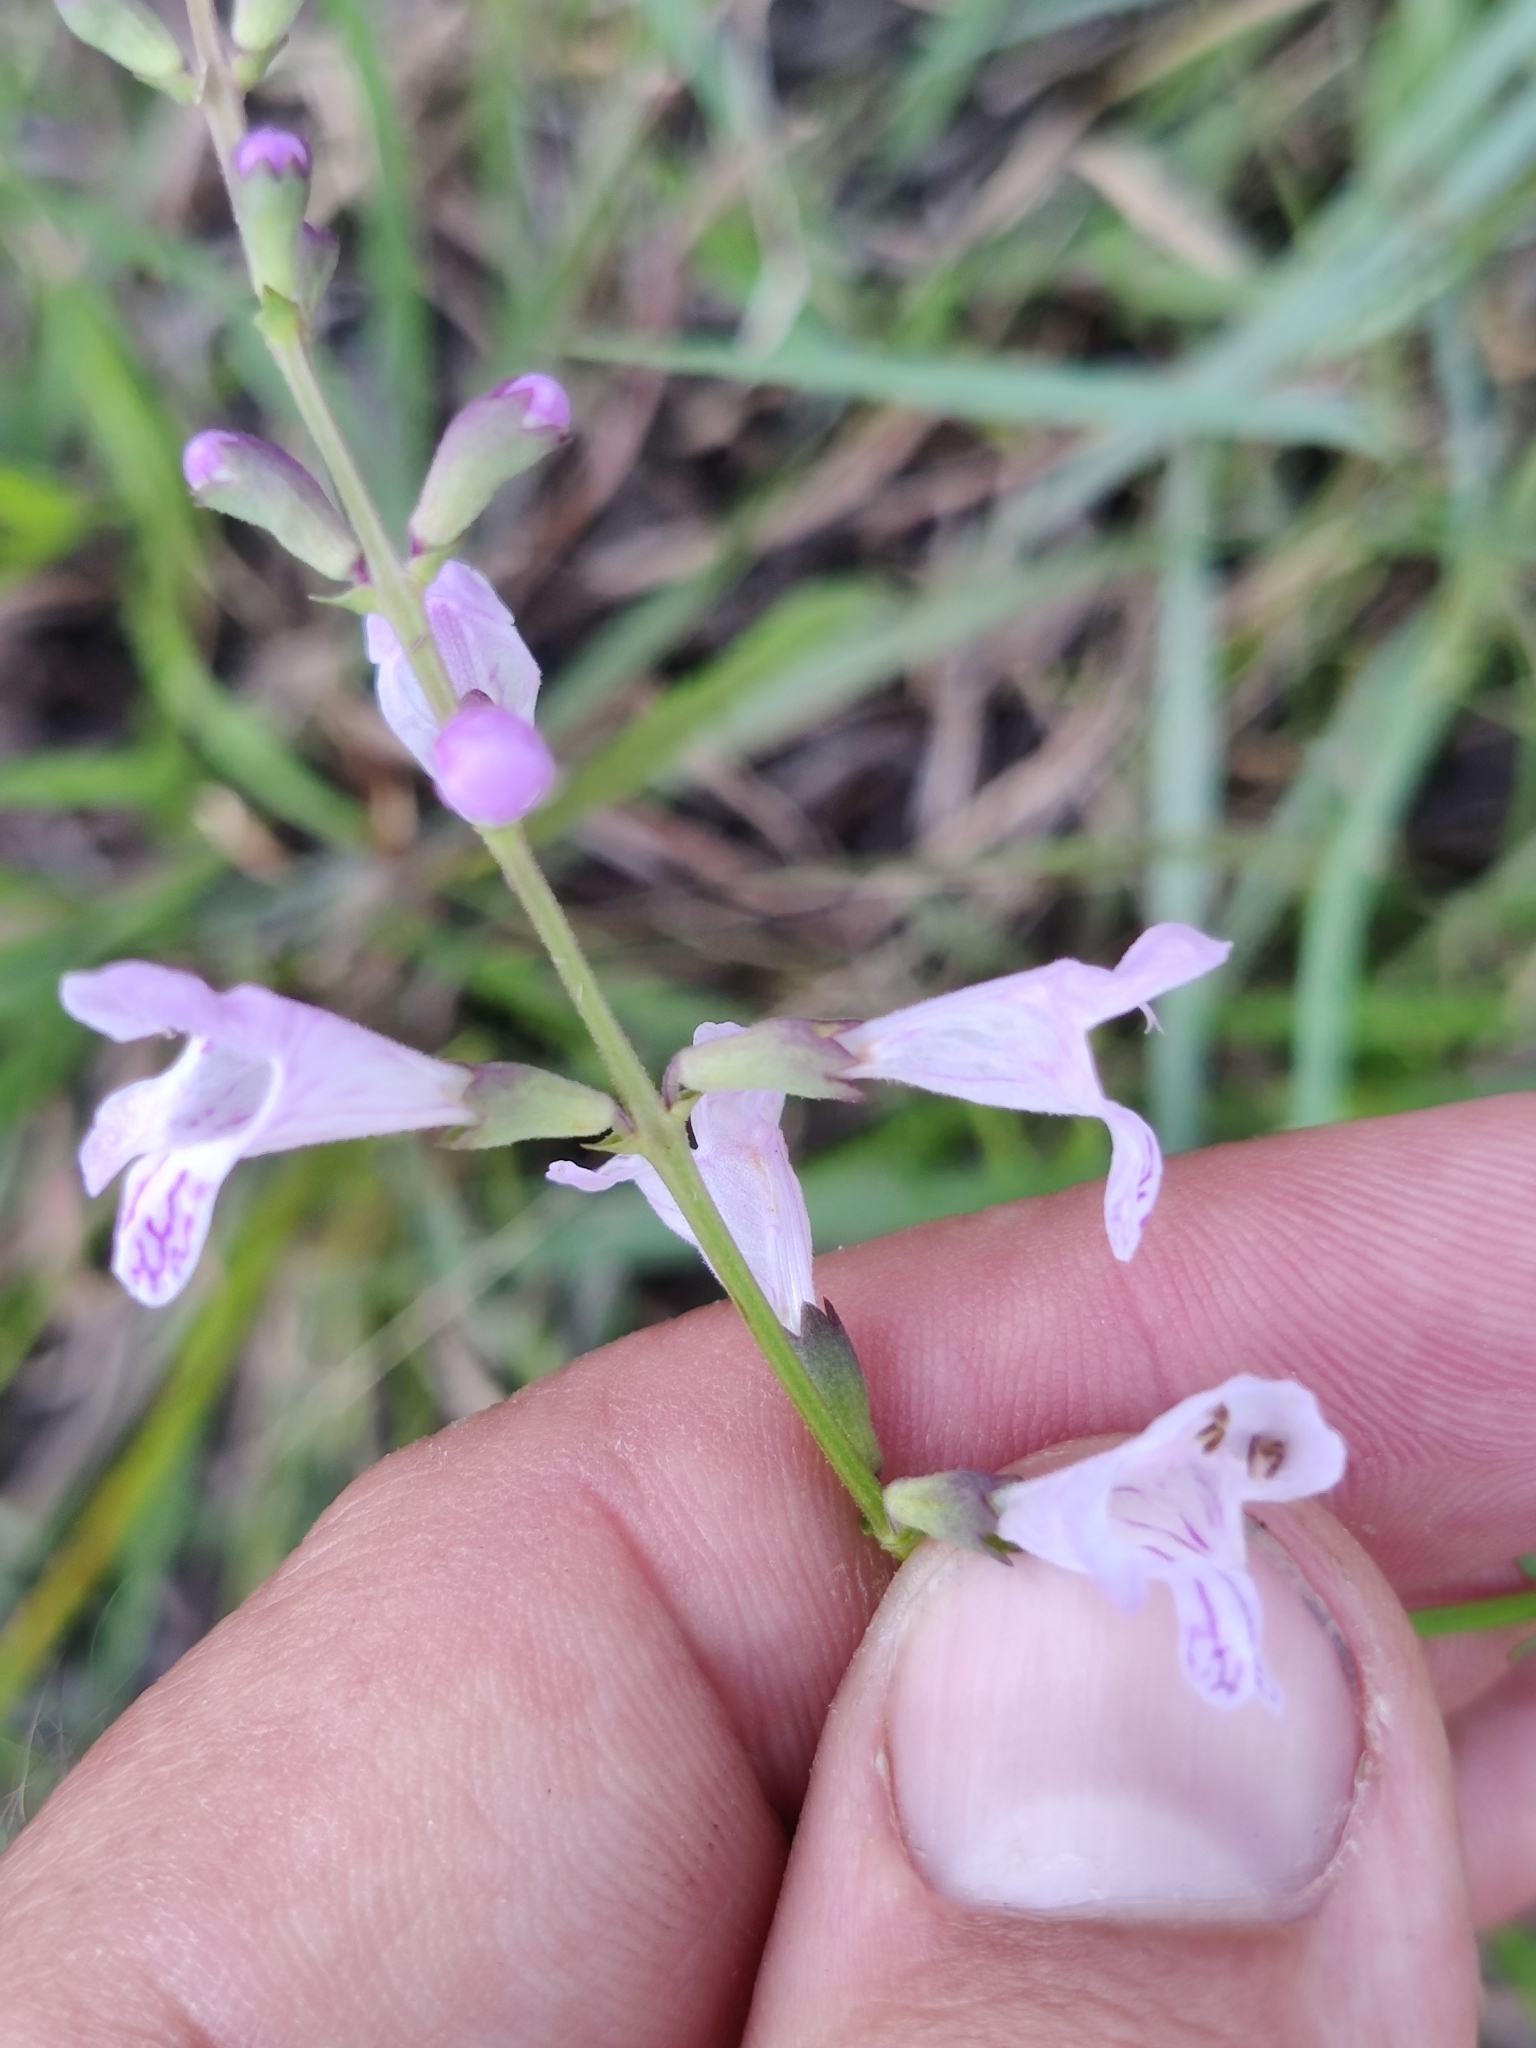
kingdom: Plantae
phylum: Tracheophyta
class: Magnoliopsida
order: Lamiales
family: Lamiaceae
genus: Physostegia
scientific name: Physostegia godfreyi
